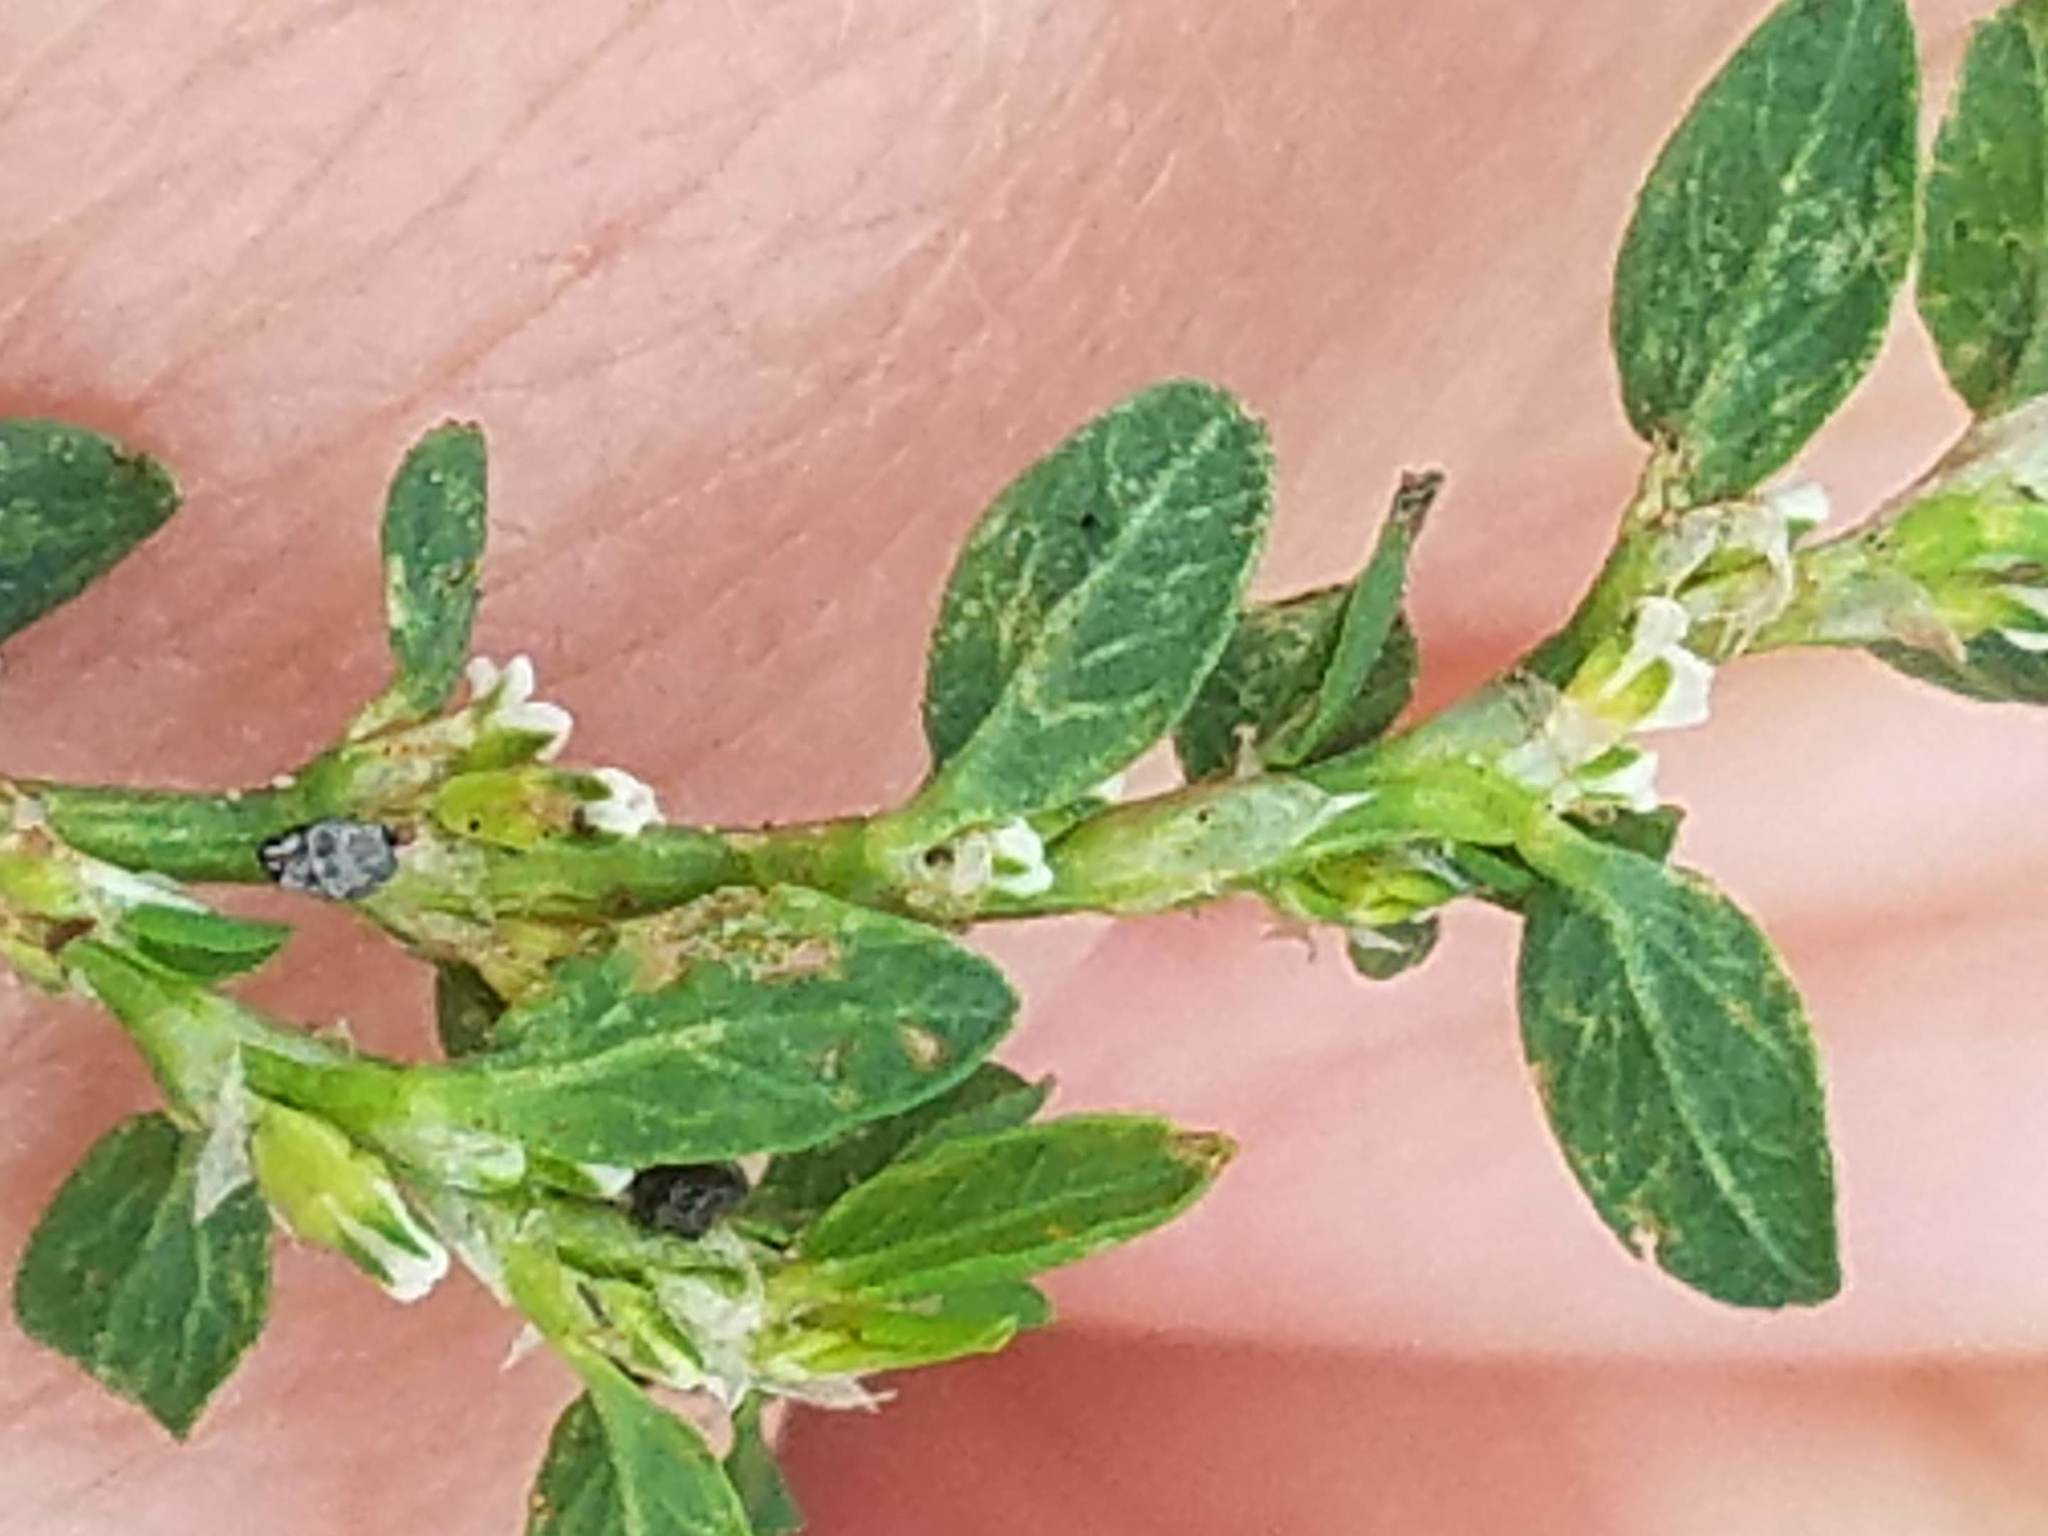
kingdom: Plantae
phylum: Tracheophyta
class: Magnoliopsida
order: Caryophyllales
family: Polygonaceae
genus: Polygonum
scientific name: Polygonum aviculare
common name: Prostrate knotweed
